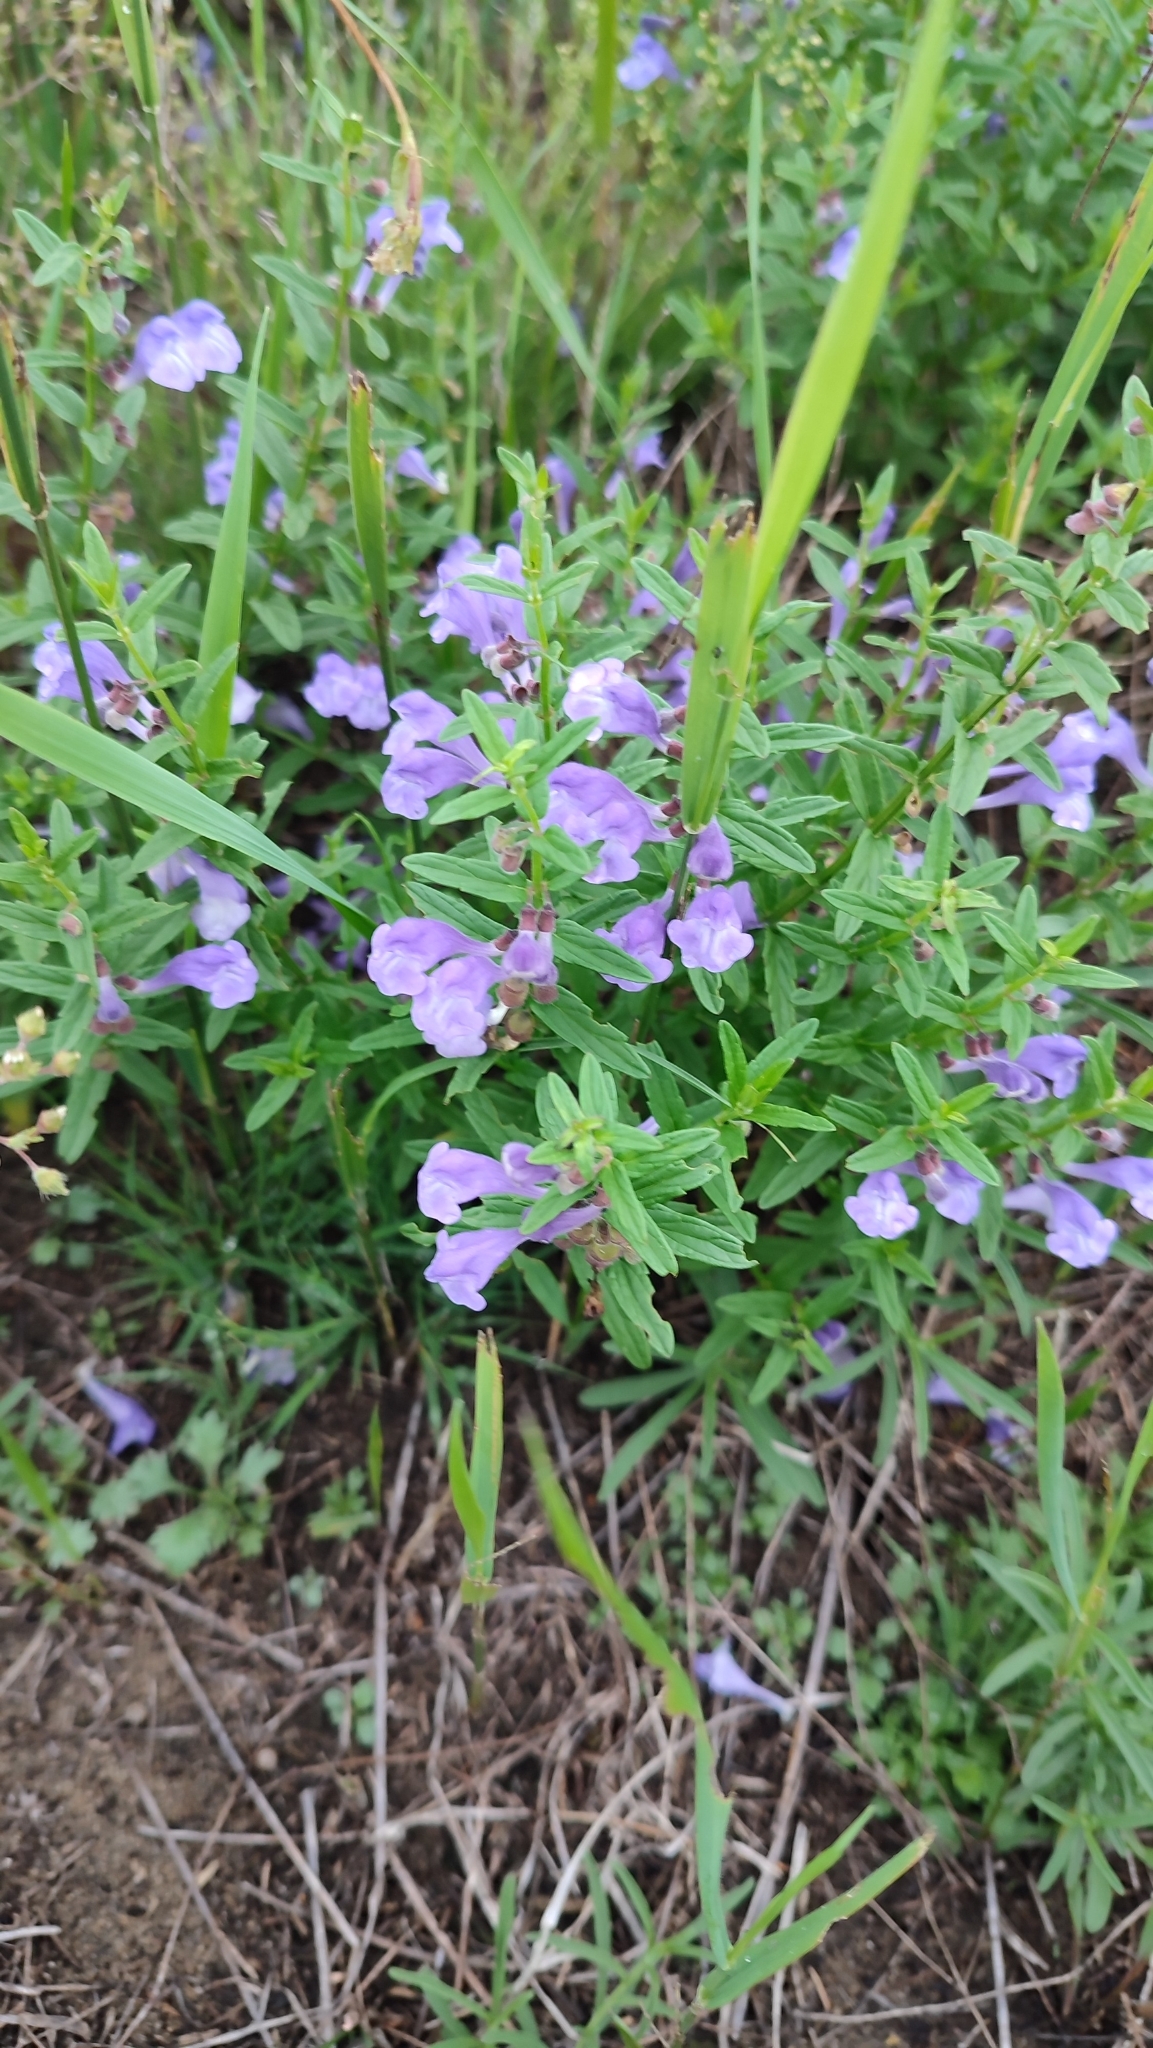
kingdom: Plantae
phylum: Tracheophyta
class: Magnoliopsida
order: Lamiales
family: Lamiaceae
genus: Scutellaria
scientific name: Scutellaria scordiifolia
